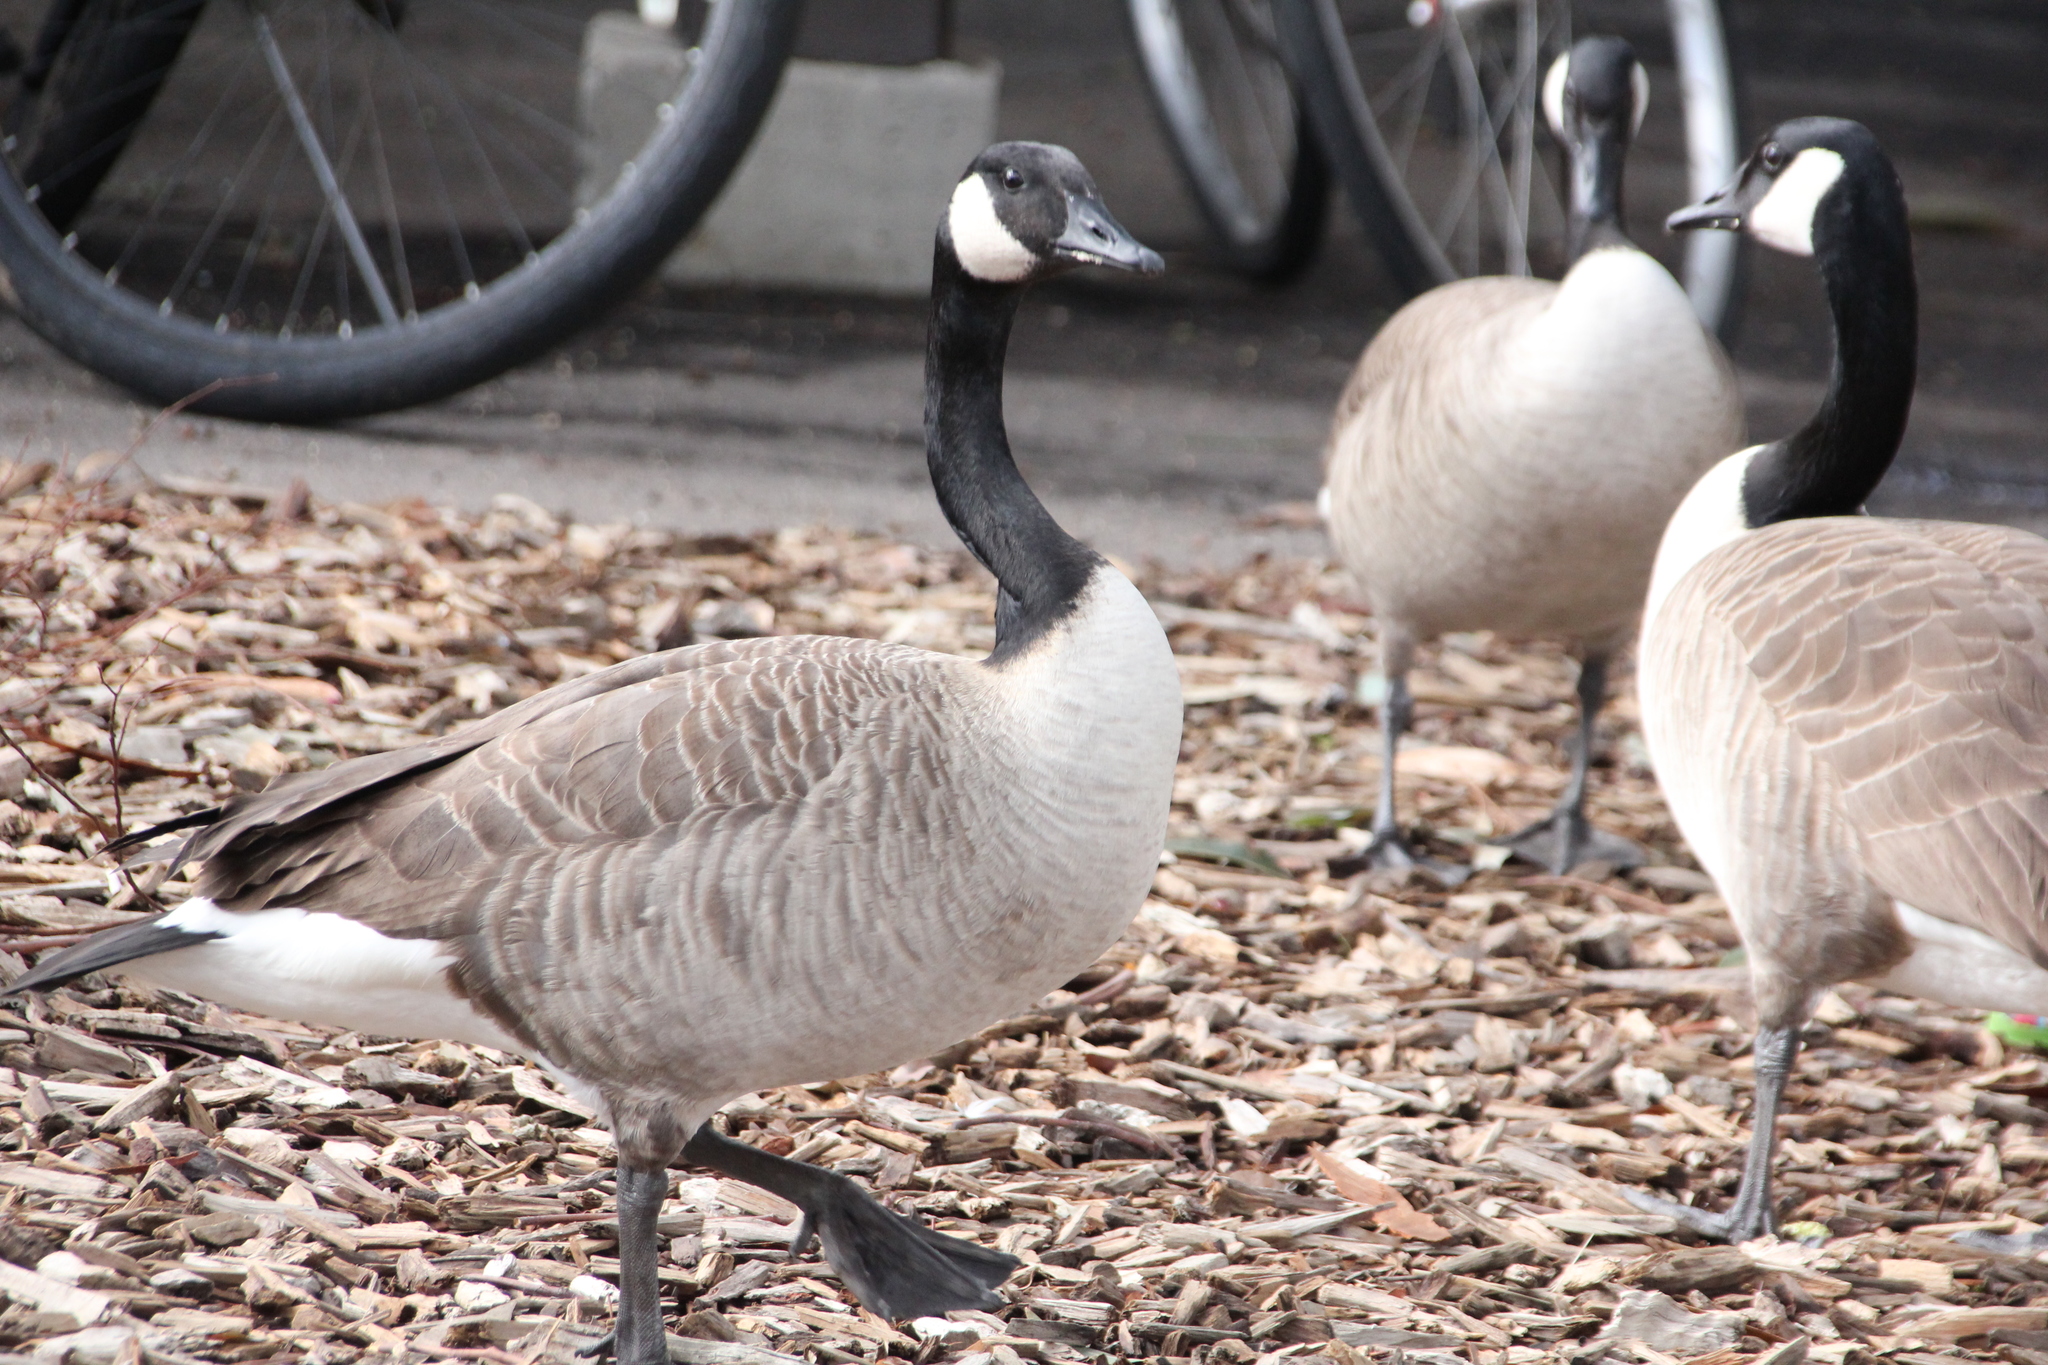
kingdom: Animalia
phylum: Chordata
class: Aves
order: Anseriformes
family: Anatidae
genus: Branta
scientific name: Branta canadensis
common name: Canada goose
